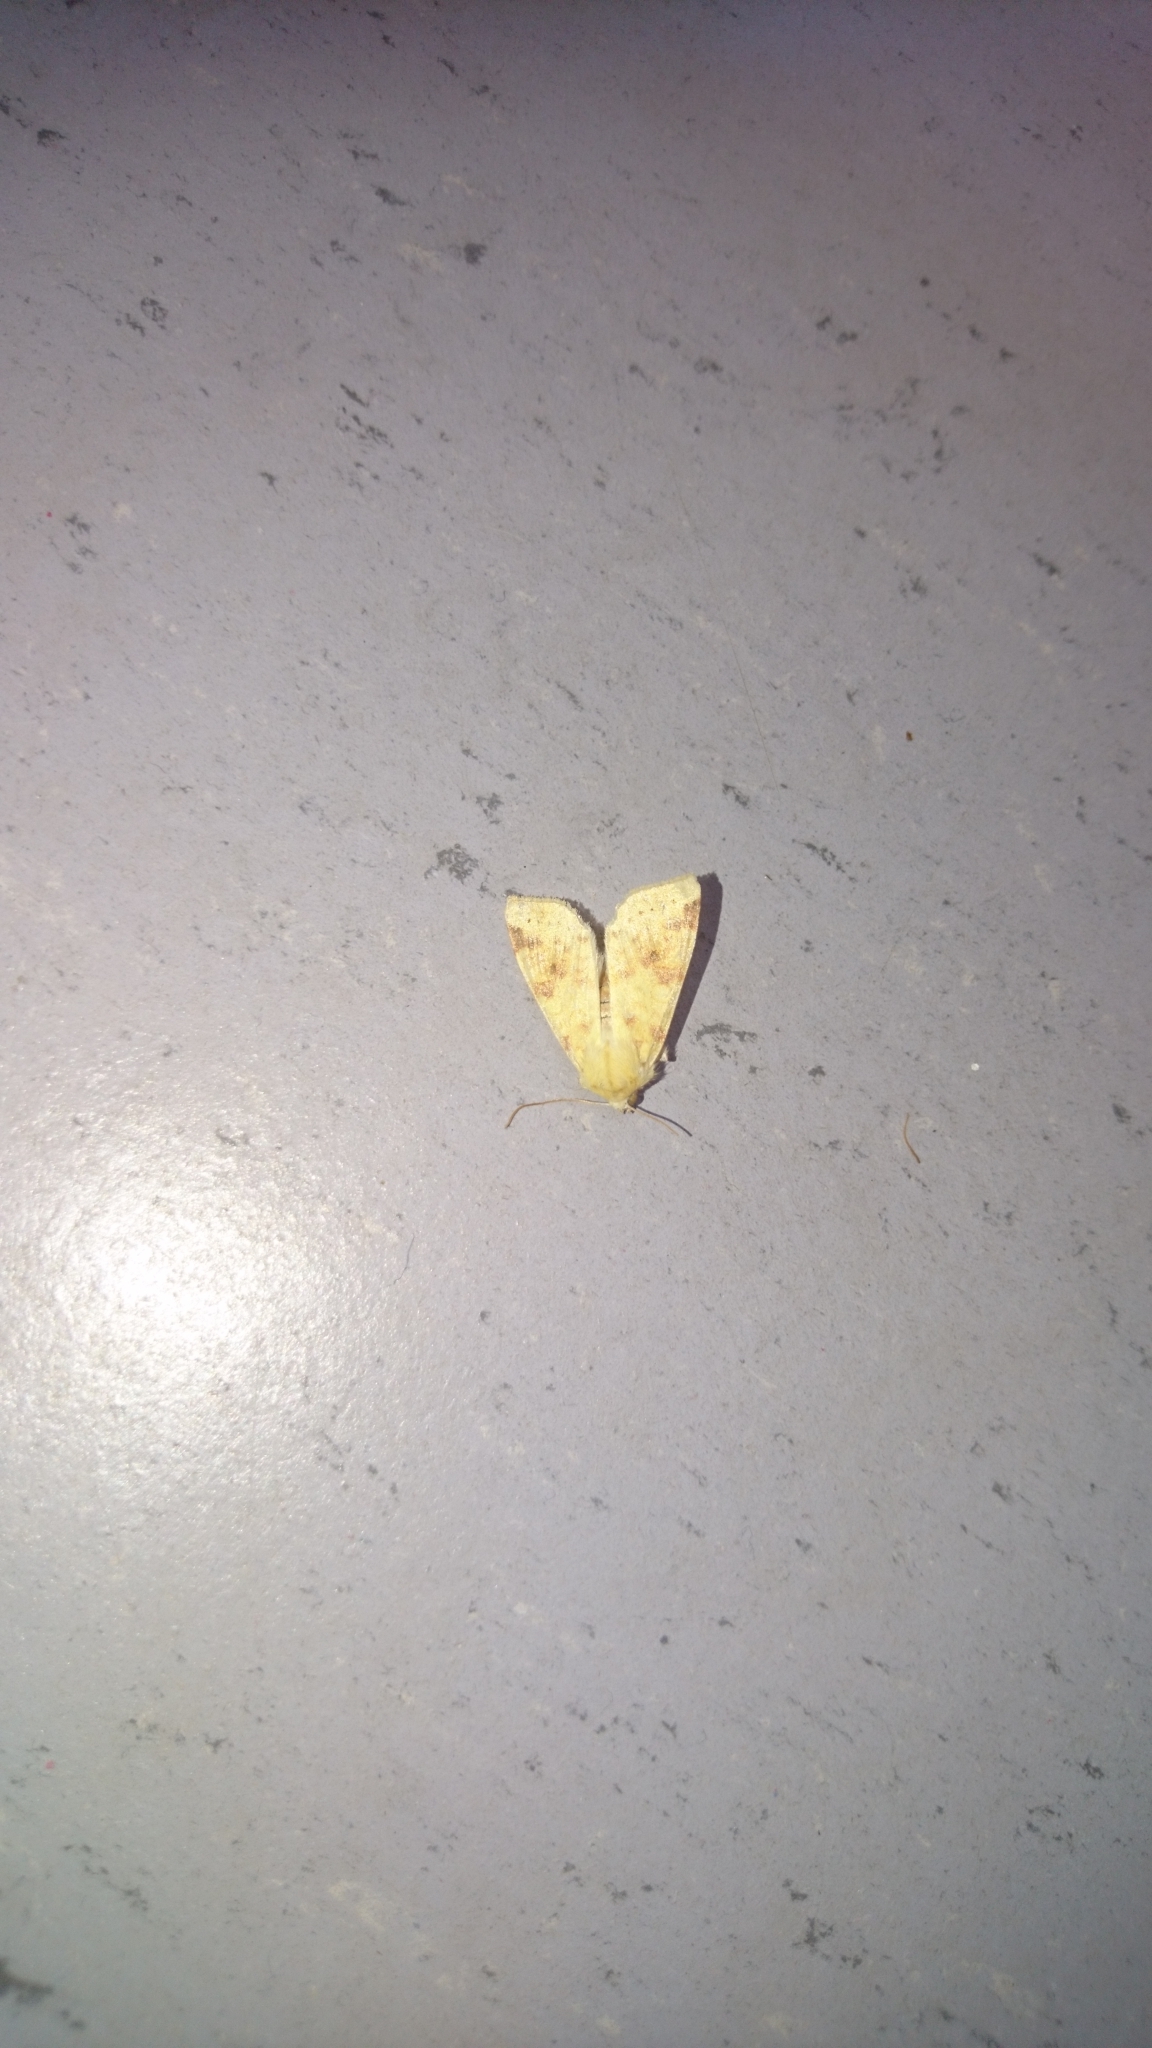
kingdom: Animalia
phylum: Arthropoda
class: Insecta
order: Lepidoptera
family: Noctuidae
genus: Xanthia
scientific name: Xanthia icteritia
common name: The sallow
